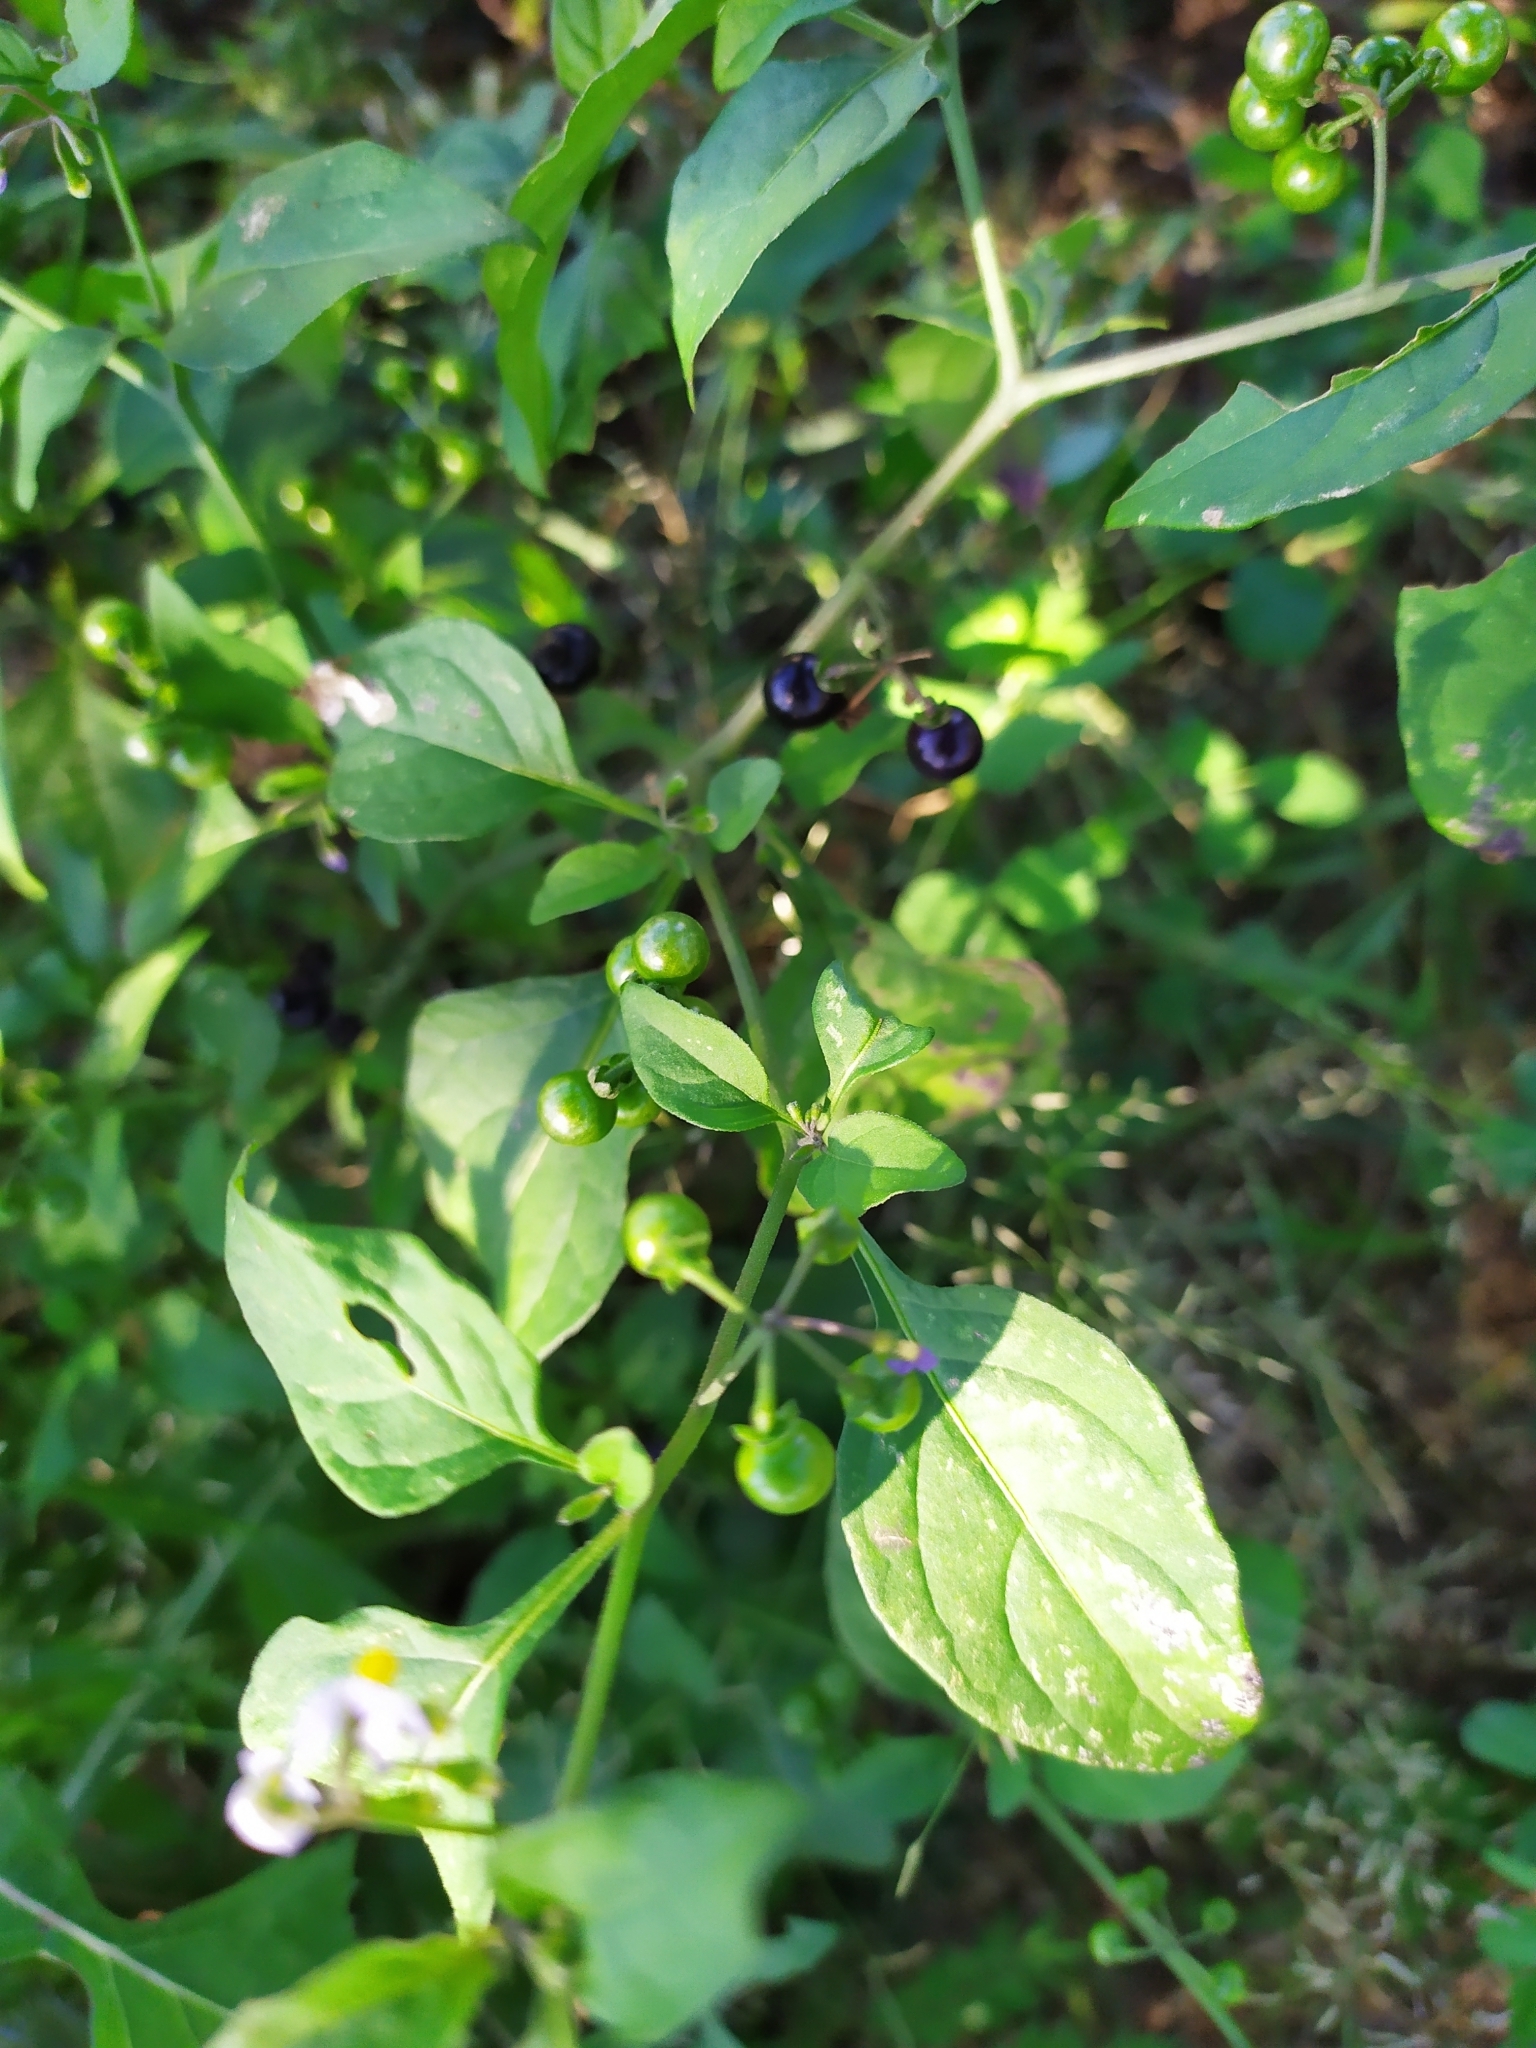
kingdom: Plantae
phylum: Tracheophyta
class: Magnoliopsida
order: Solanales
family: Solanaceae
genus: Solanum
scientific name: Solanum americanum
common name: American black nightshade
